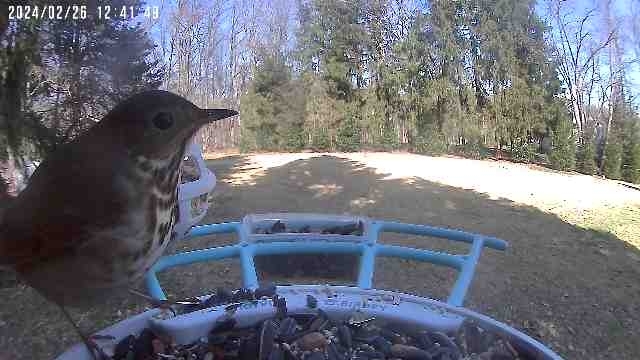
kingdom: Animalia
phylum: Chordata
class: Aves
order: Passeriformes
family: Turdidae
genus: Catharus
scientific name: Catharus guttatus
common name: Hermit thrush
